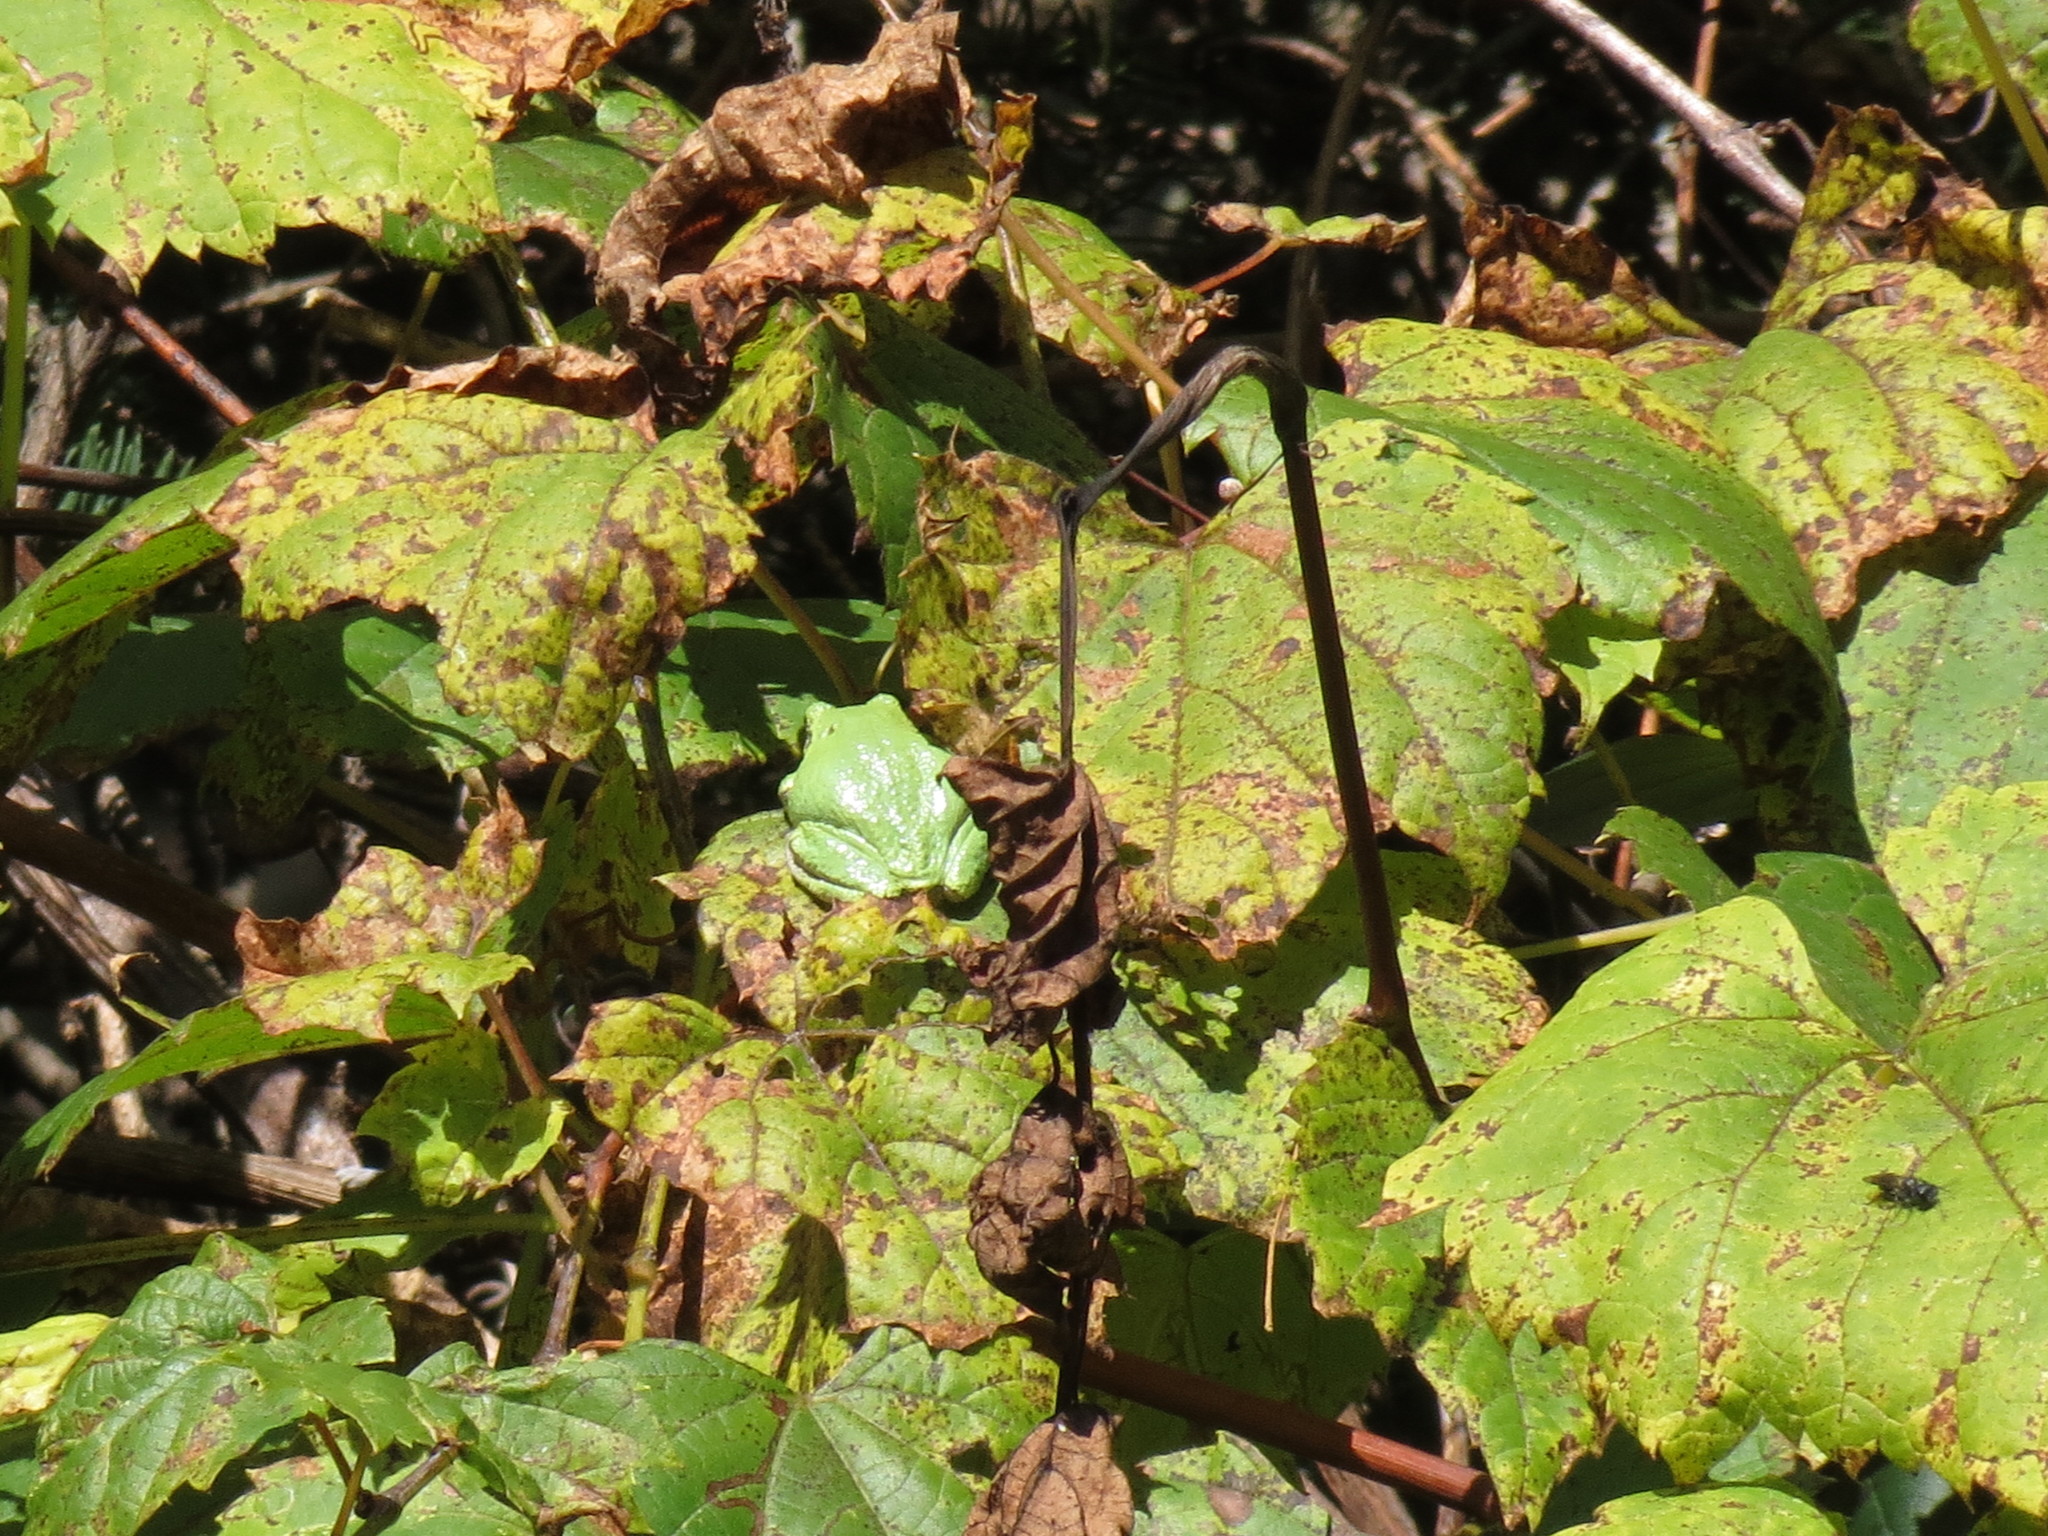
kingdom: Animalia
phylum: Chordata
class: Amphibia
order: Anura
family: Hylidae
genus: Dryophytes
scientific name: Dryophytes versicolor
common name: Gray treefrog
